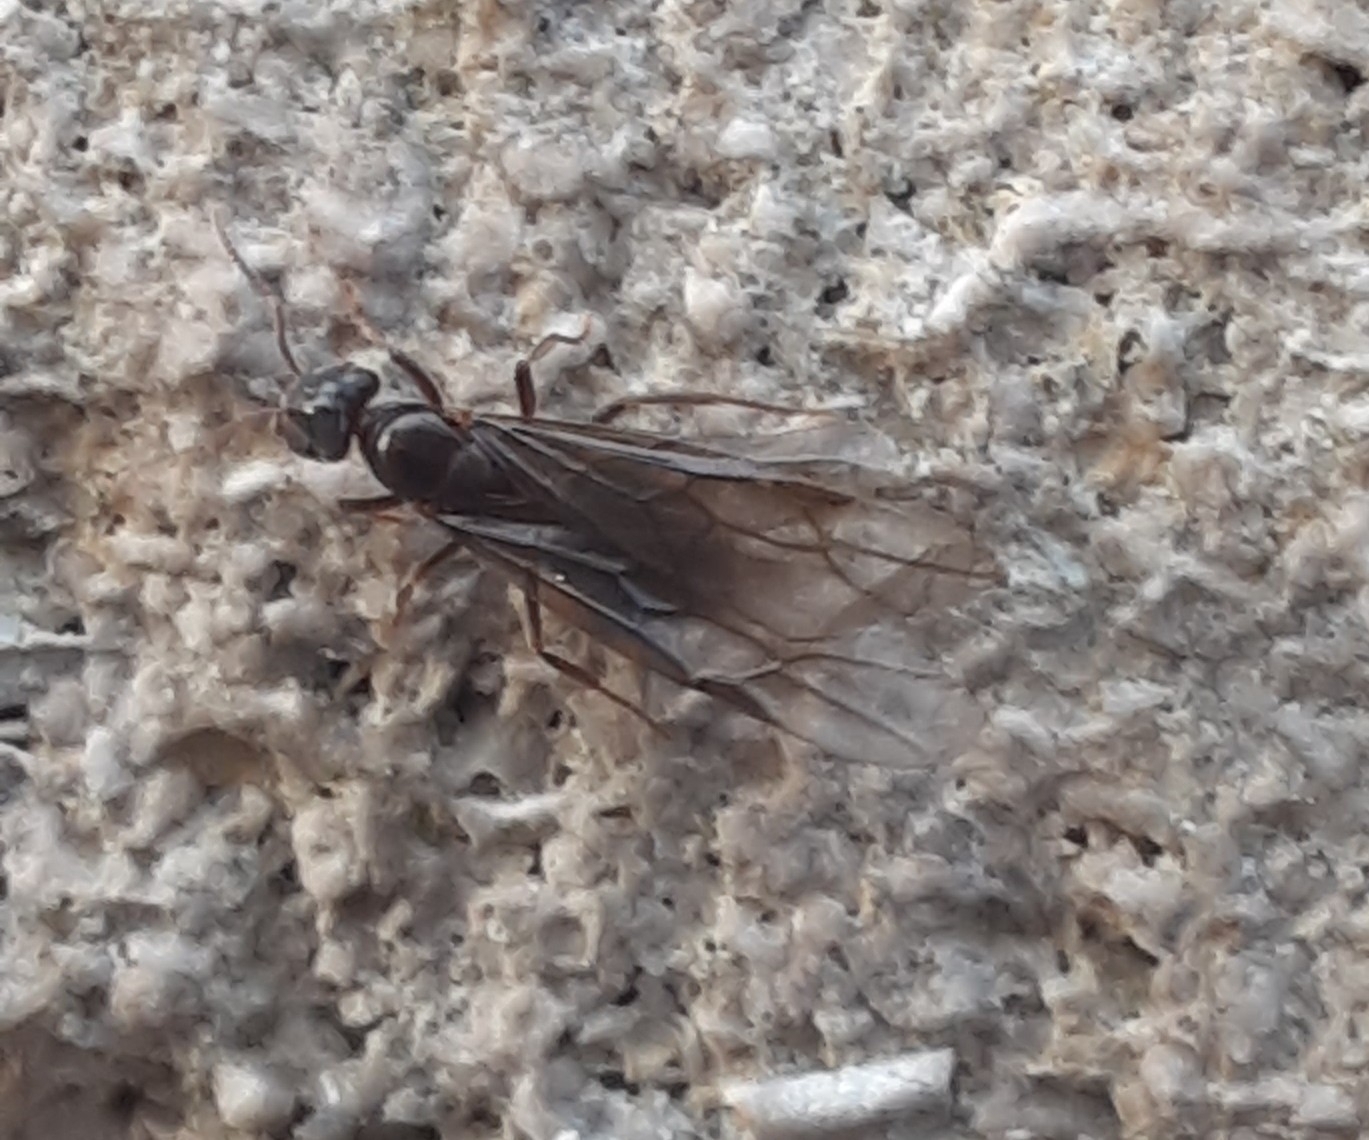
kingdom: Animalia
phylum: Arthropoda
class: Insecta
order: Hymenoptera
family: Formicidae
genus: Lasius
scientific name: Lasius aphidicola
